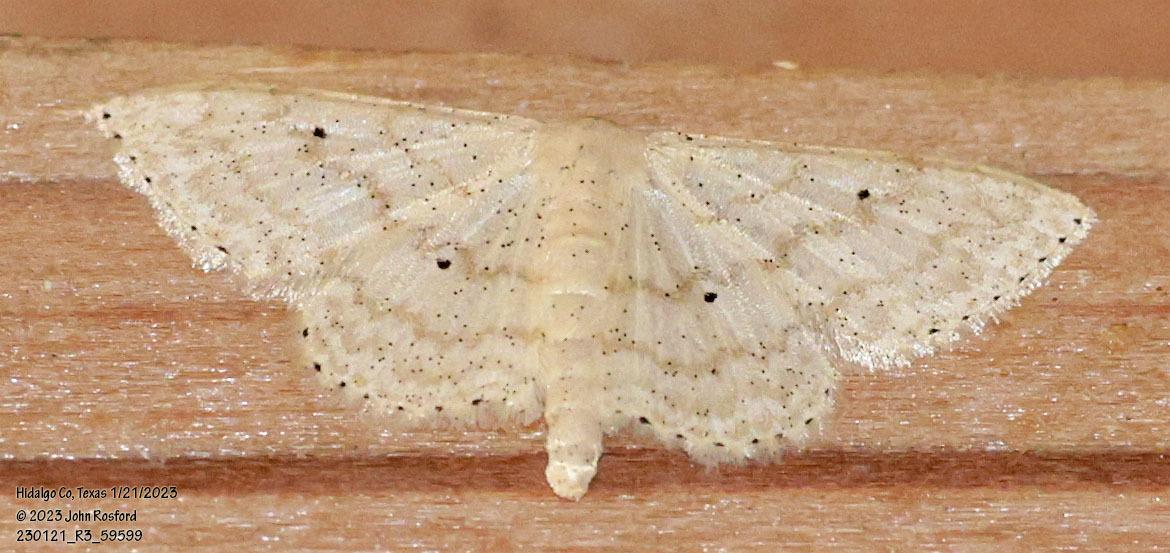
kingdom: Animalia
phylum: Arthropoda
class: Insecta
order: Lepidoptera
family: Geometridae
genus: Scopula
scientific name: Scopula benitaria
